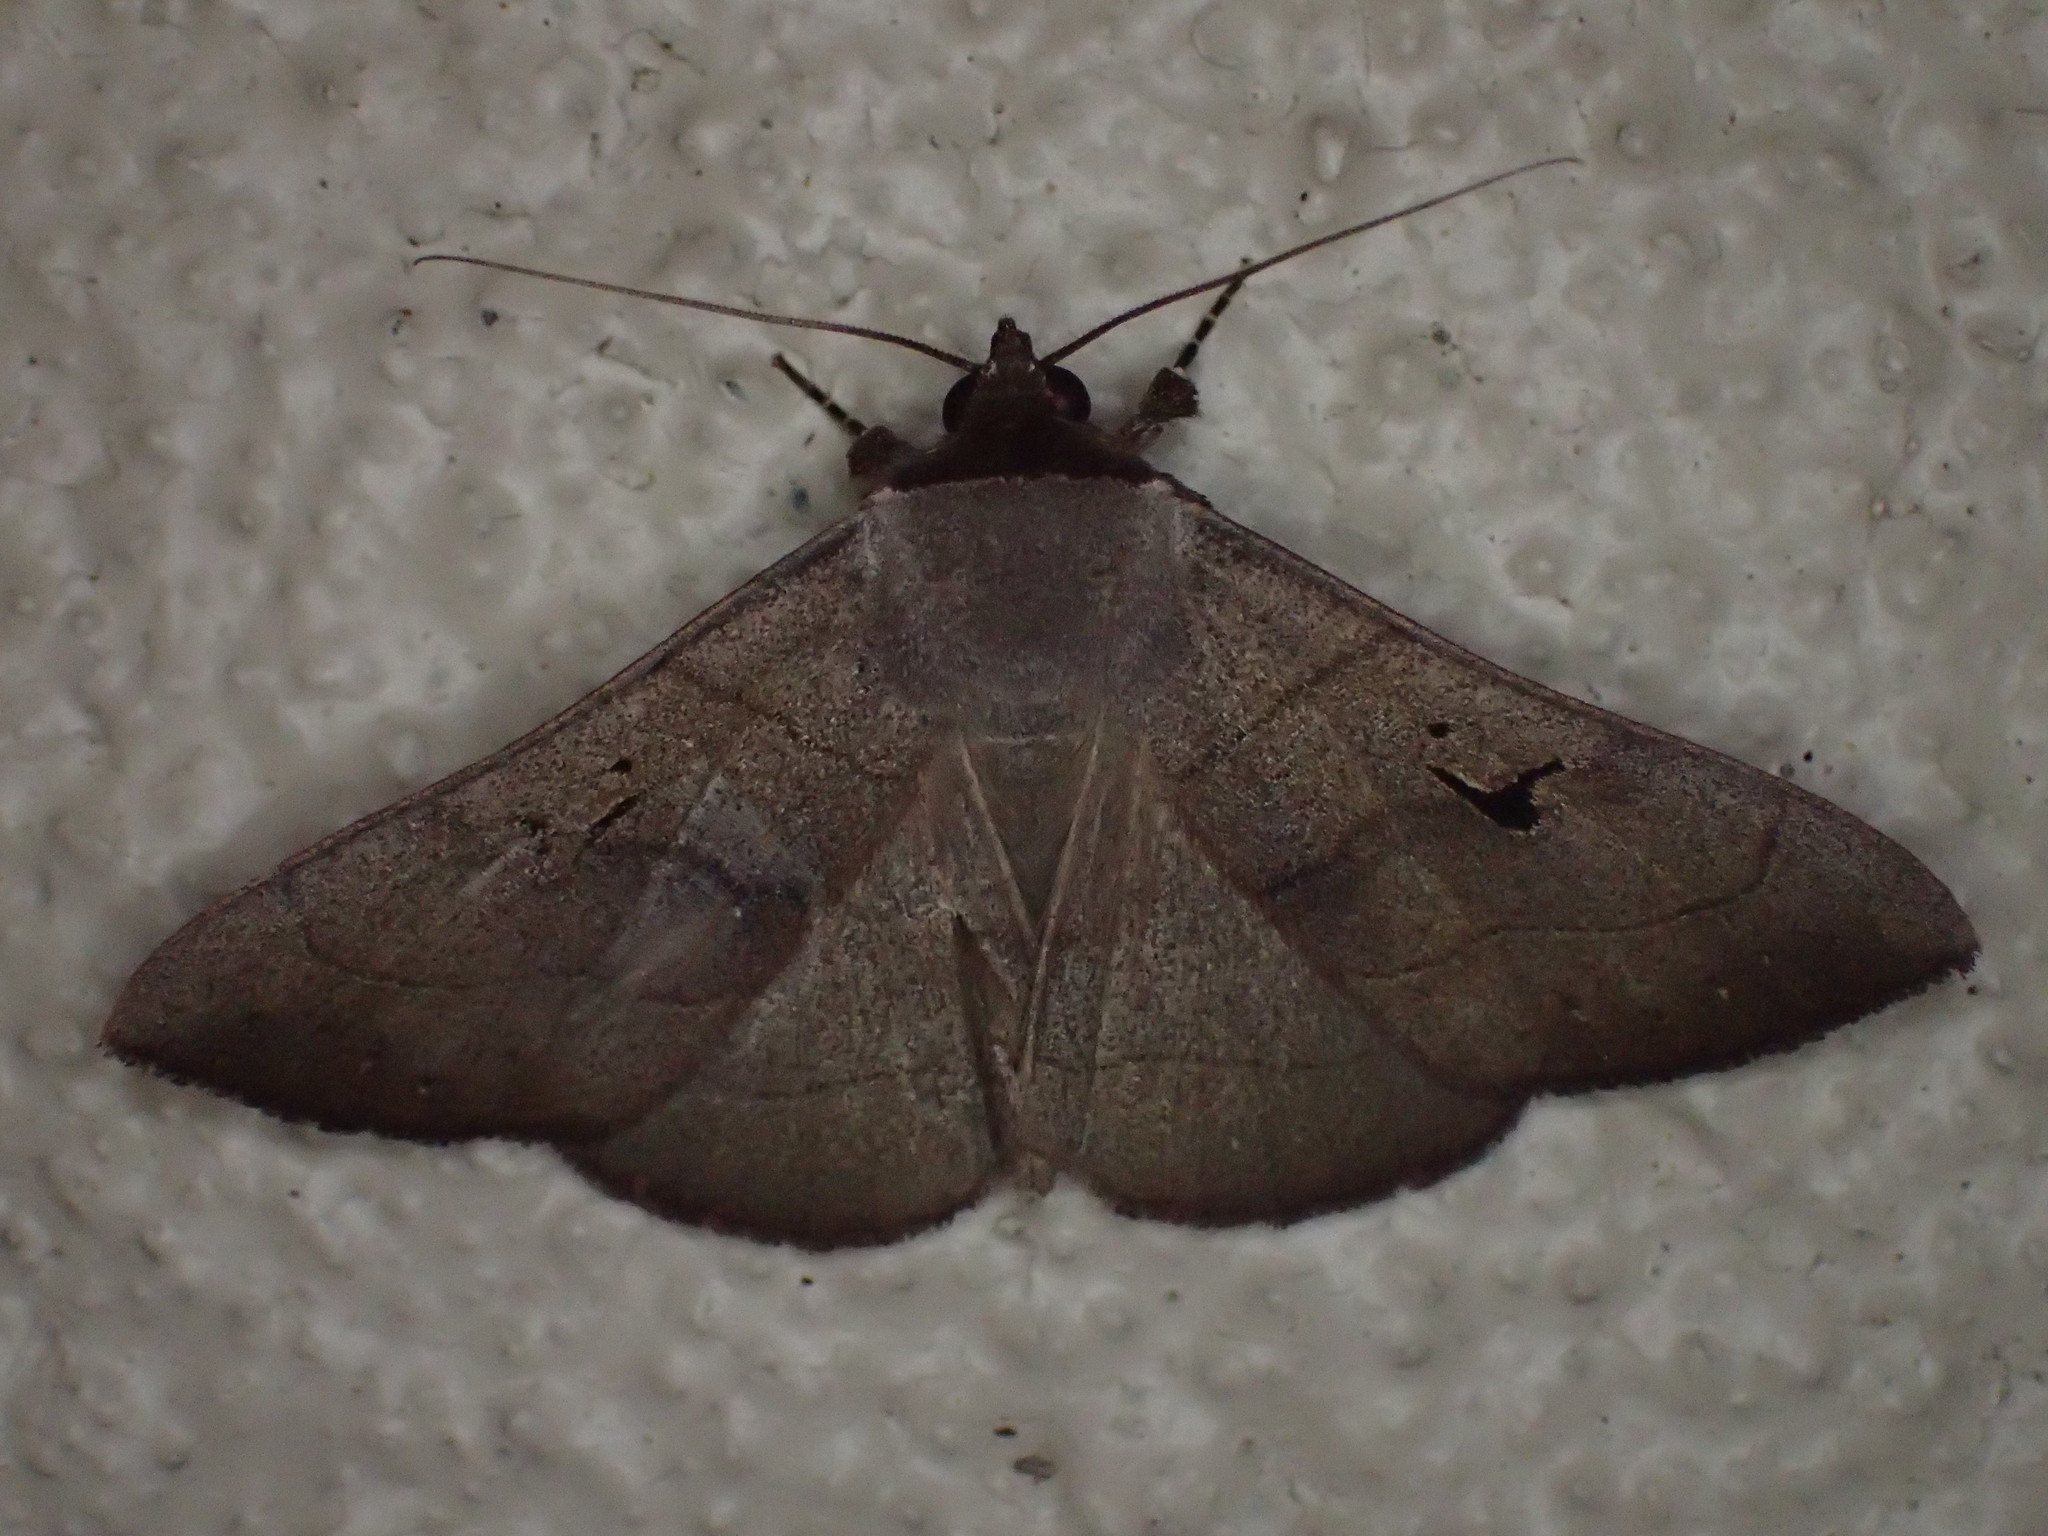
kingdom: Animalia
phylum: Arthropoda
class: Insecta
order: Lepidoptera
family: Erebidae
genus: Panopoda
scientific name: Panopoda carneicosta
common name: Brown panopoda moth
